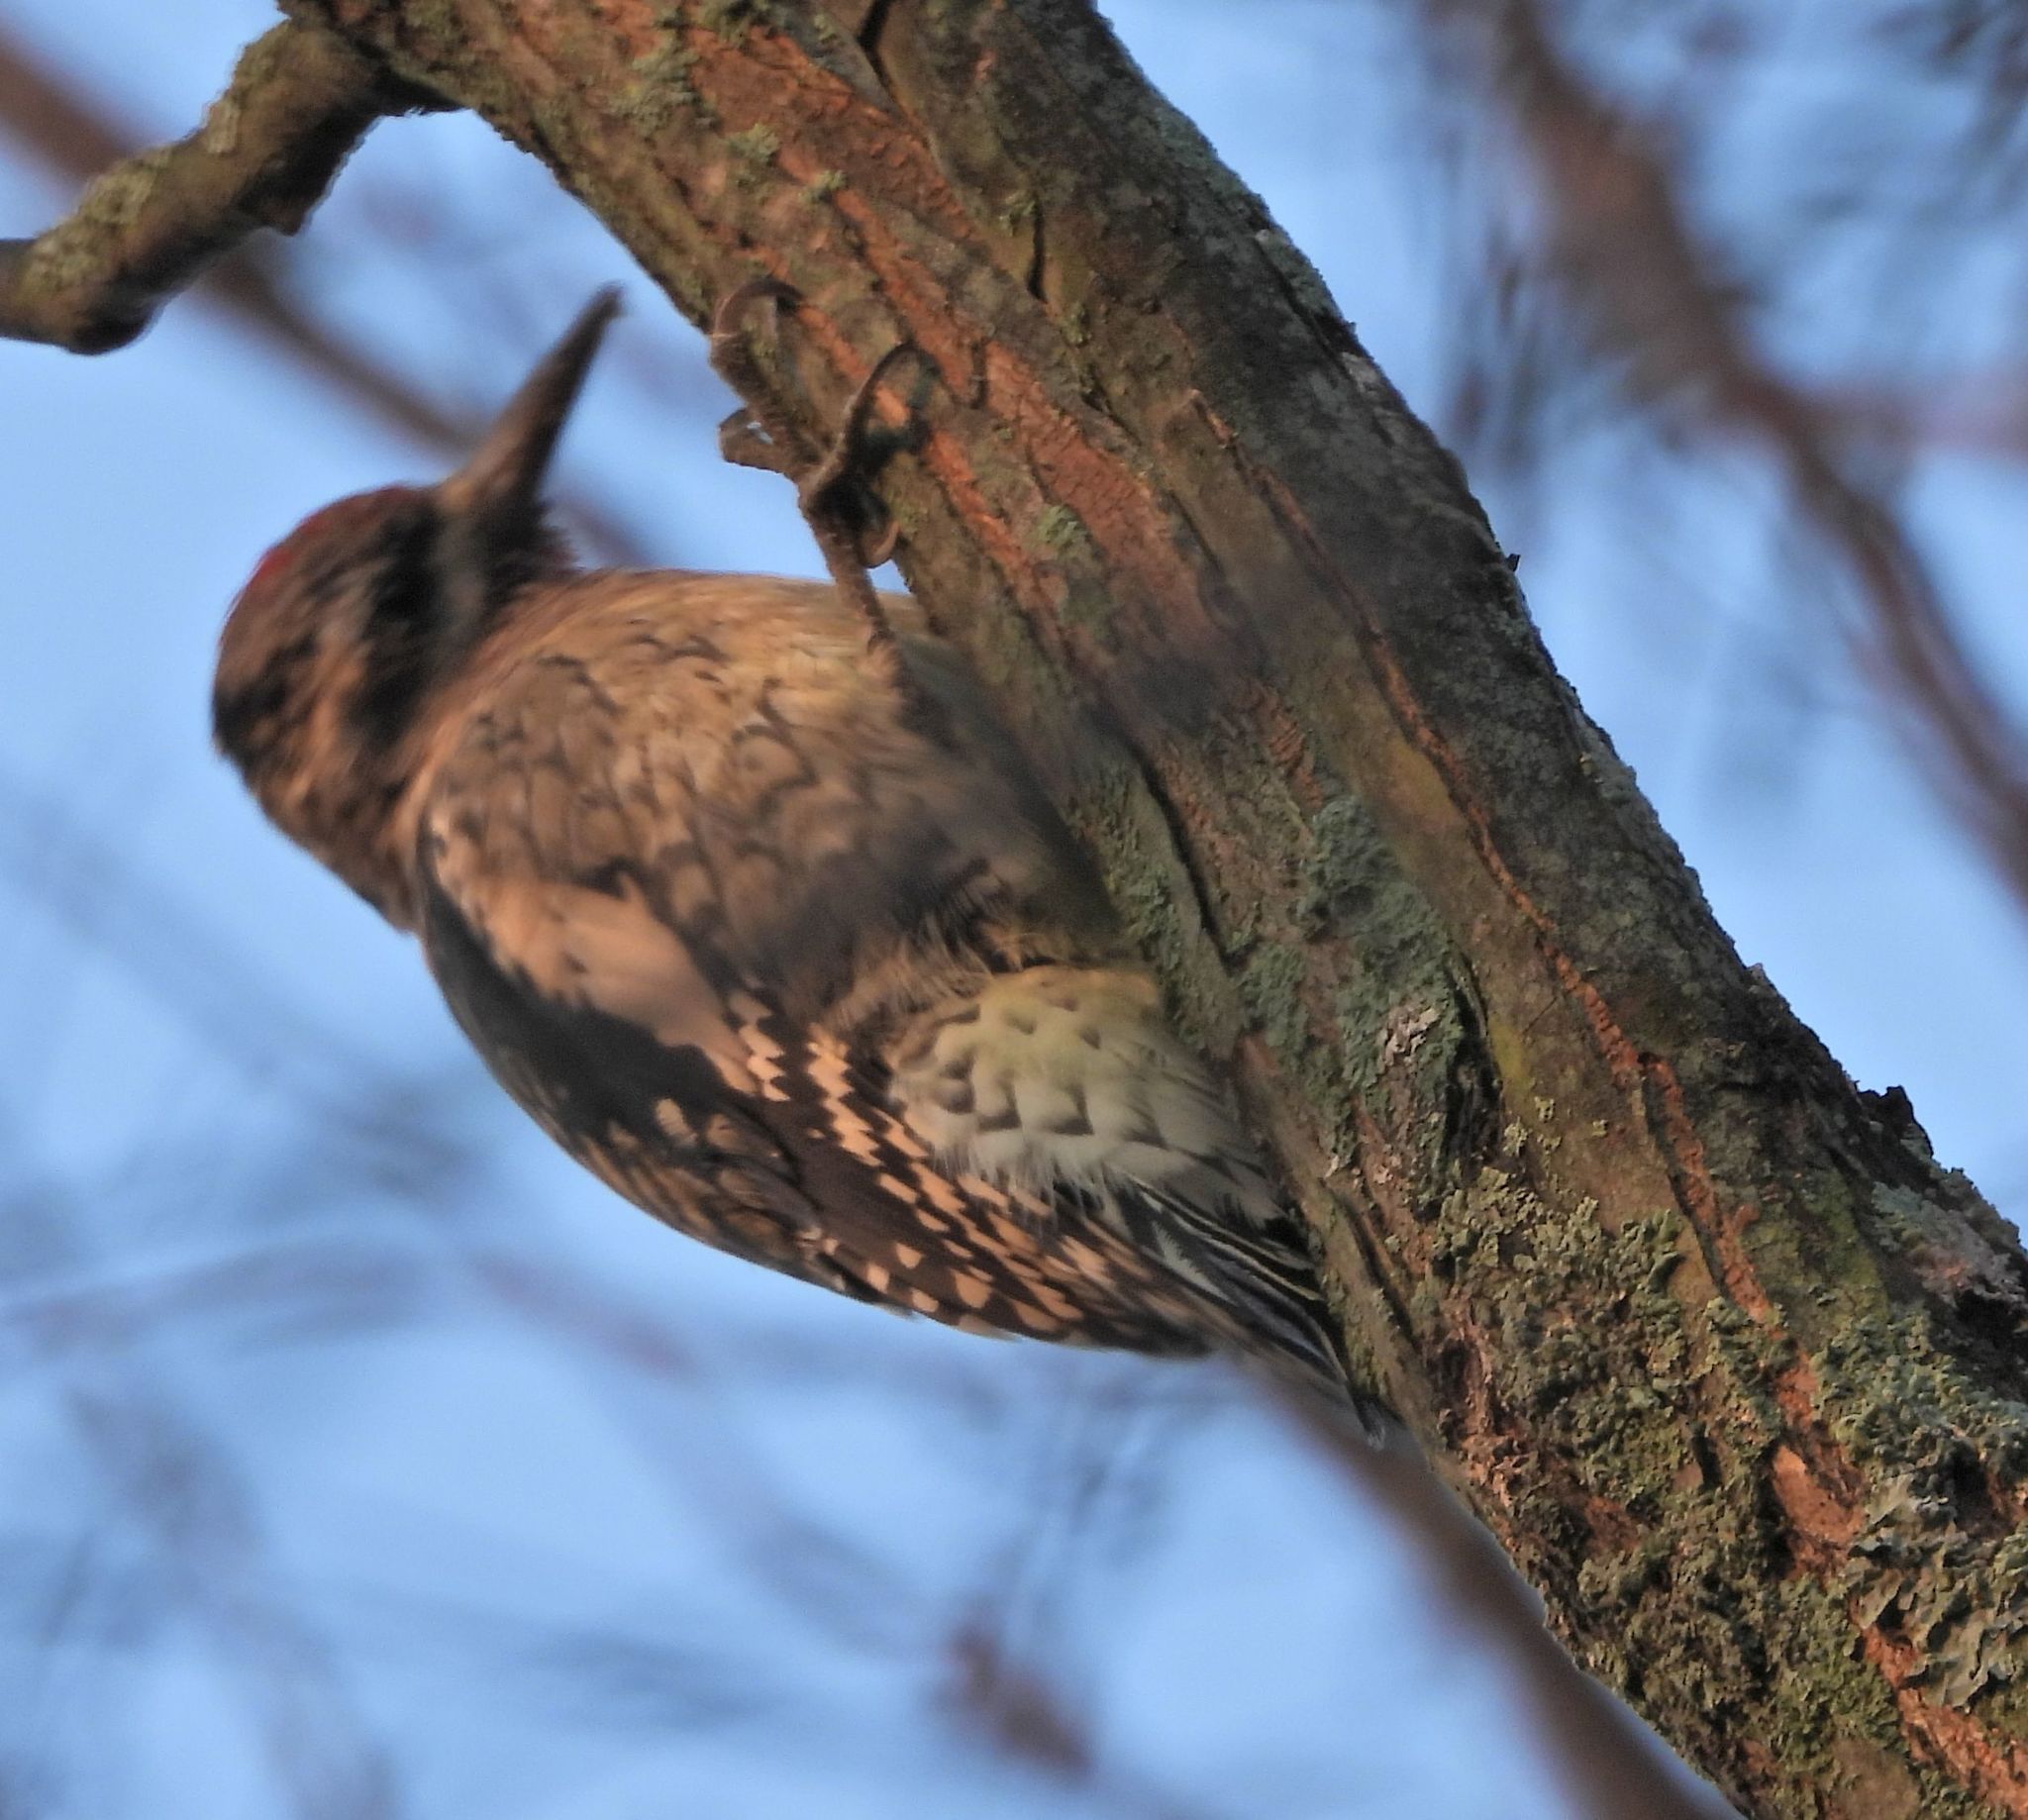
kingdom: Animalia
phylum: Chordata
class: Aves
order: Piciformes
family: Picidae
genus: Sphyrapicus
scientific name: Sphyrapicus varius
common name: Yellow-bellied sapsucker
